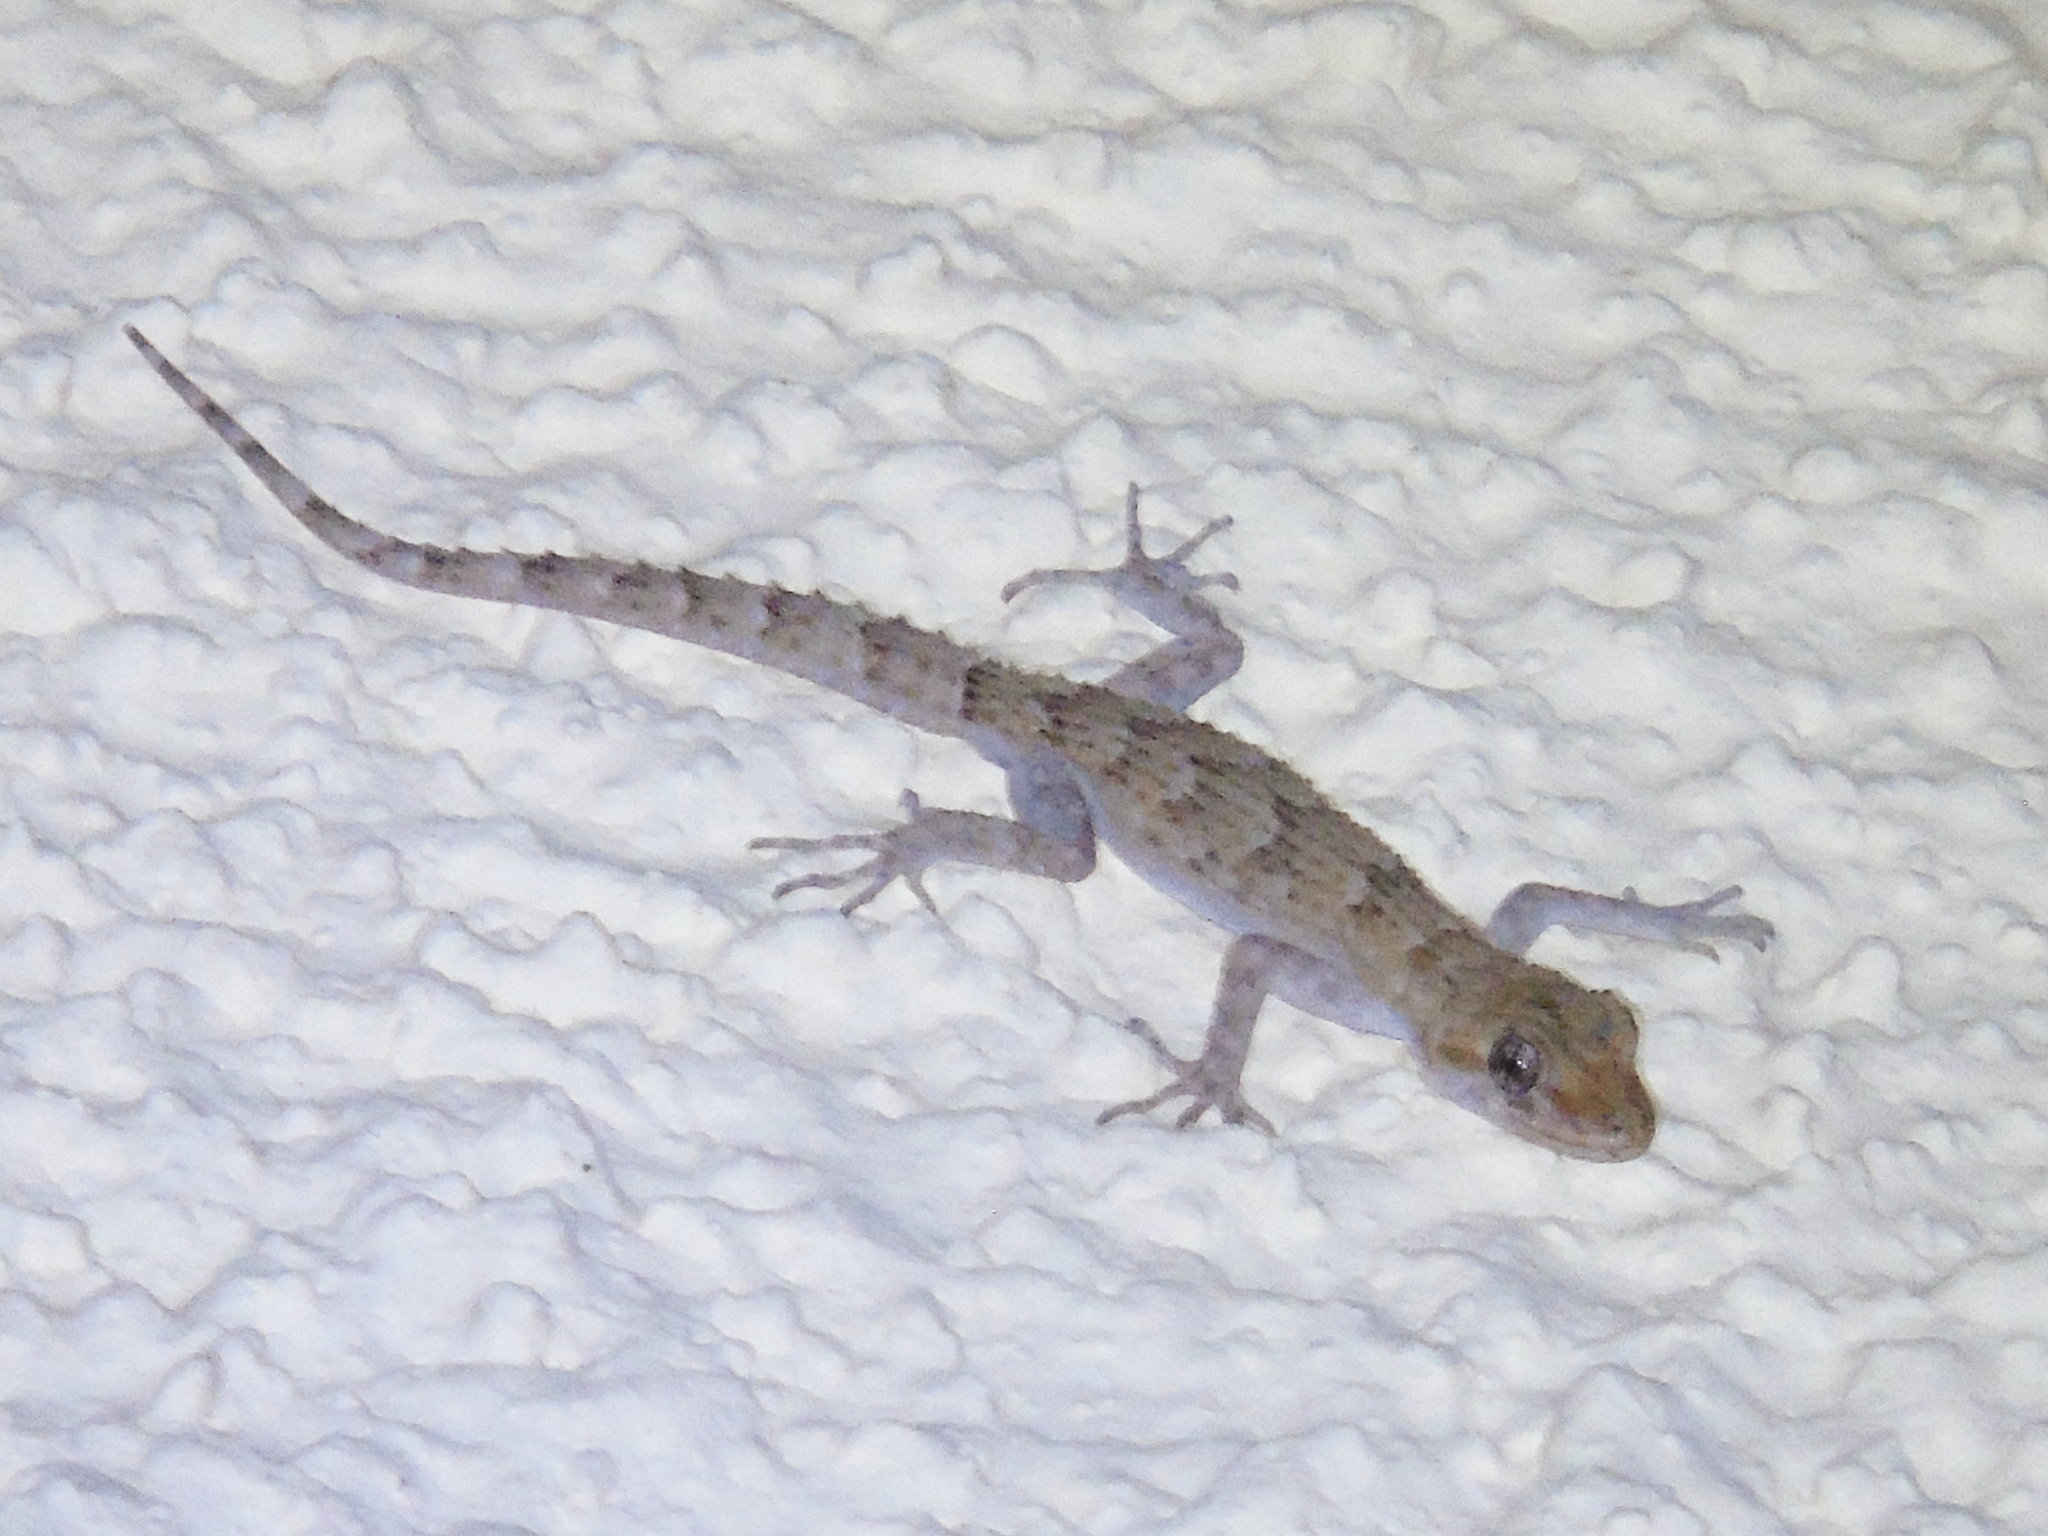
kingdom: Animalia
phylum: Chordata
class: Squamata
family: Gekkonidae
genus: Mediodactylus
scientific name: Mediodactylus kotschyi
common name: Kotschy's gecko
